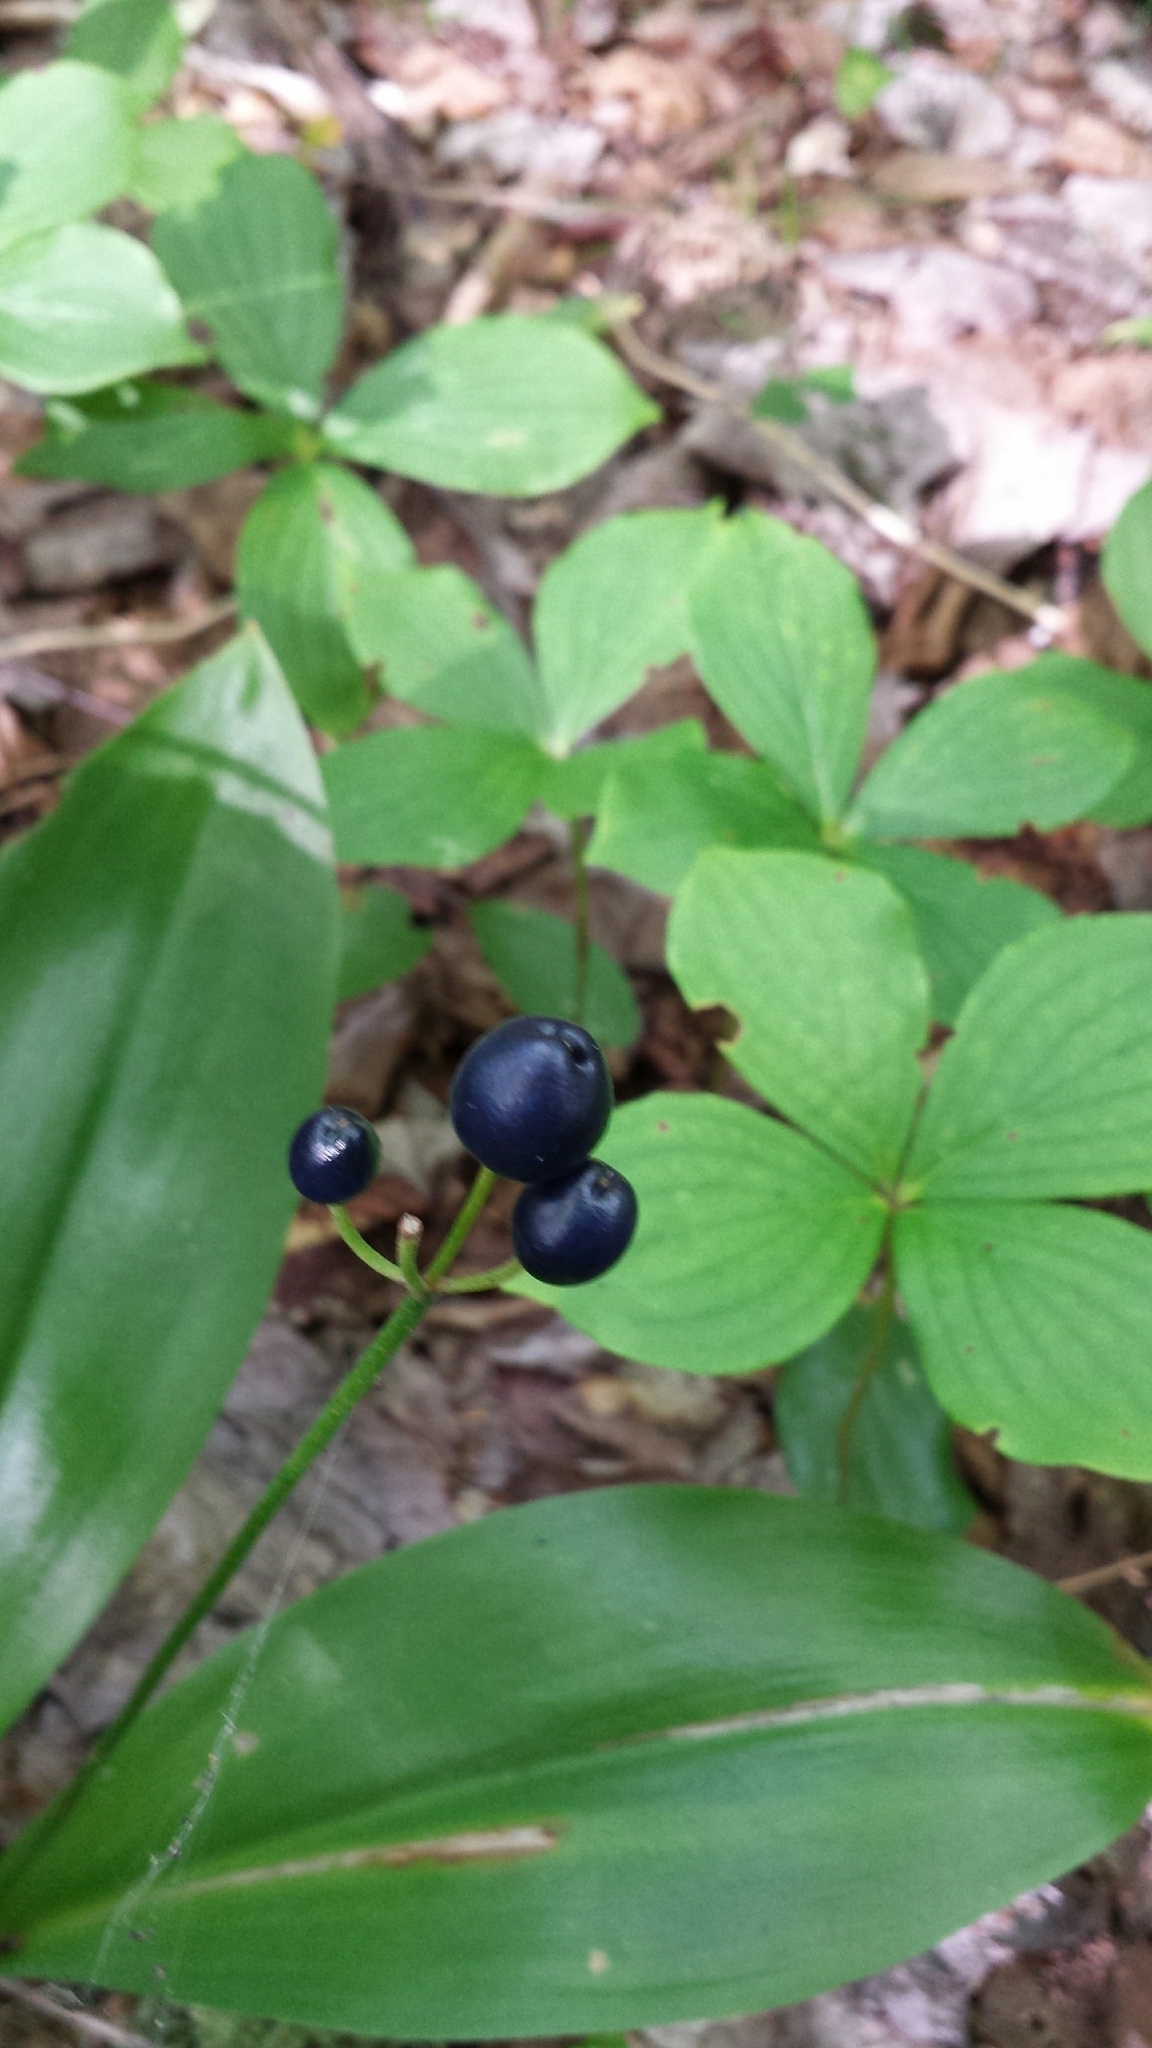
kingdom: Plantae
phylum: Tracheophyta
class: Liliopsida
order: Liliales
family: Liliaceae
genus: Clintonia
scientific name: Clintonia borealis
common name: Yellow clintonia
